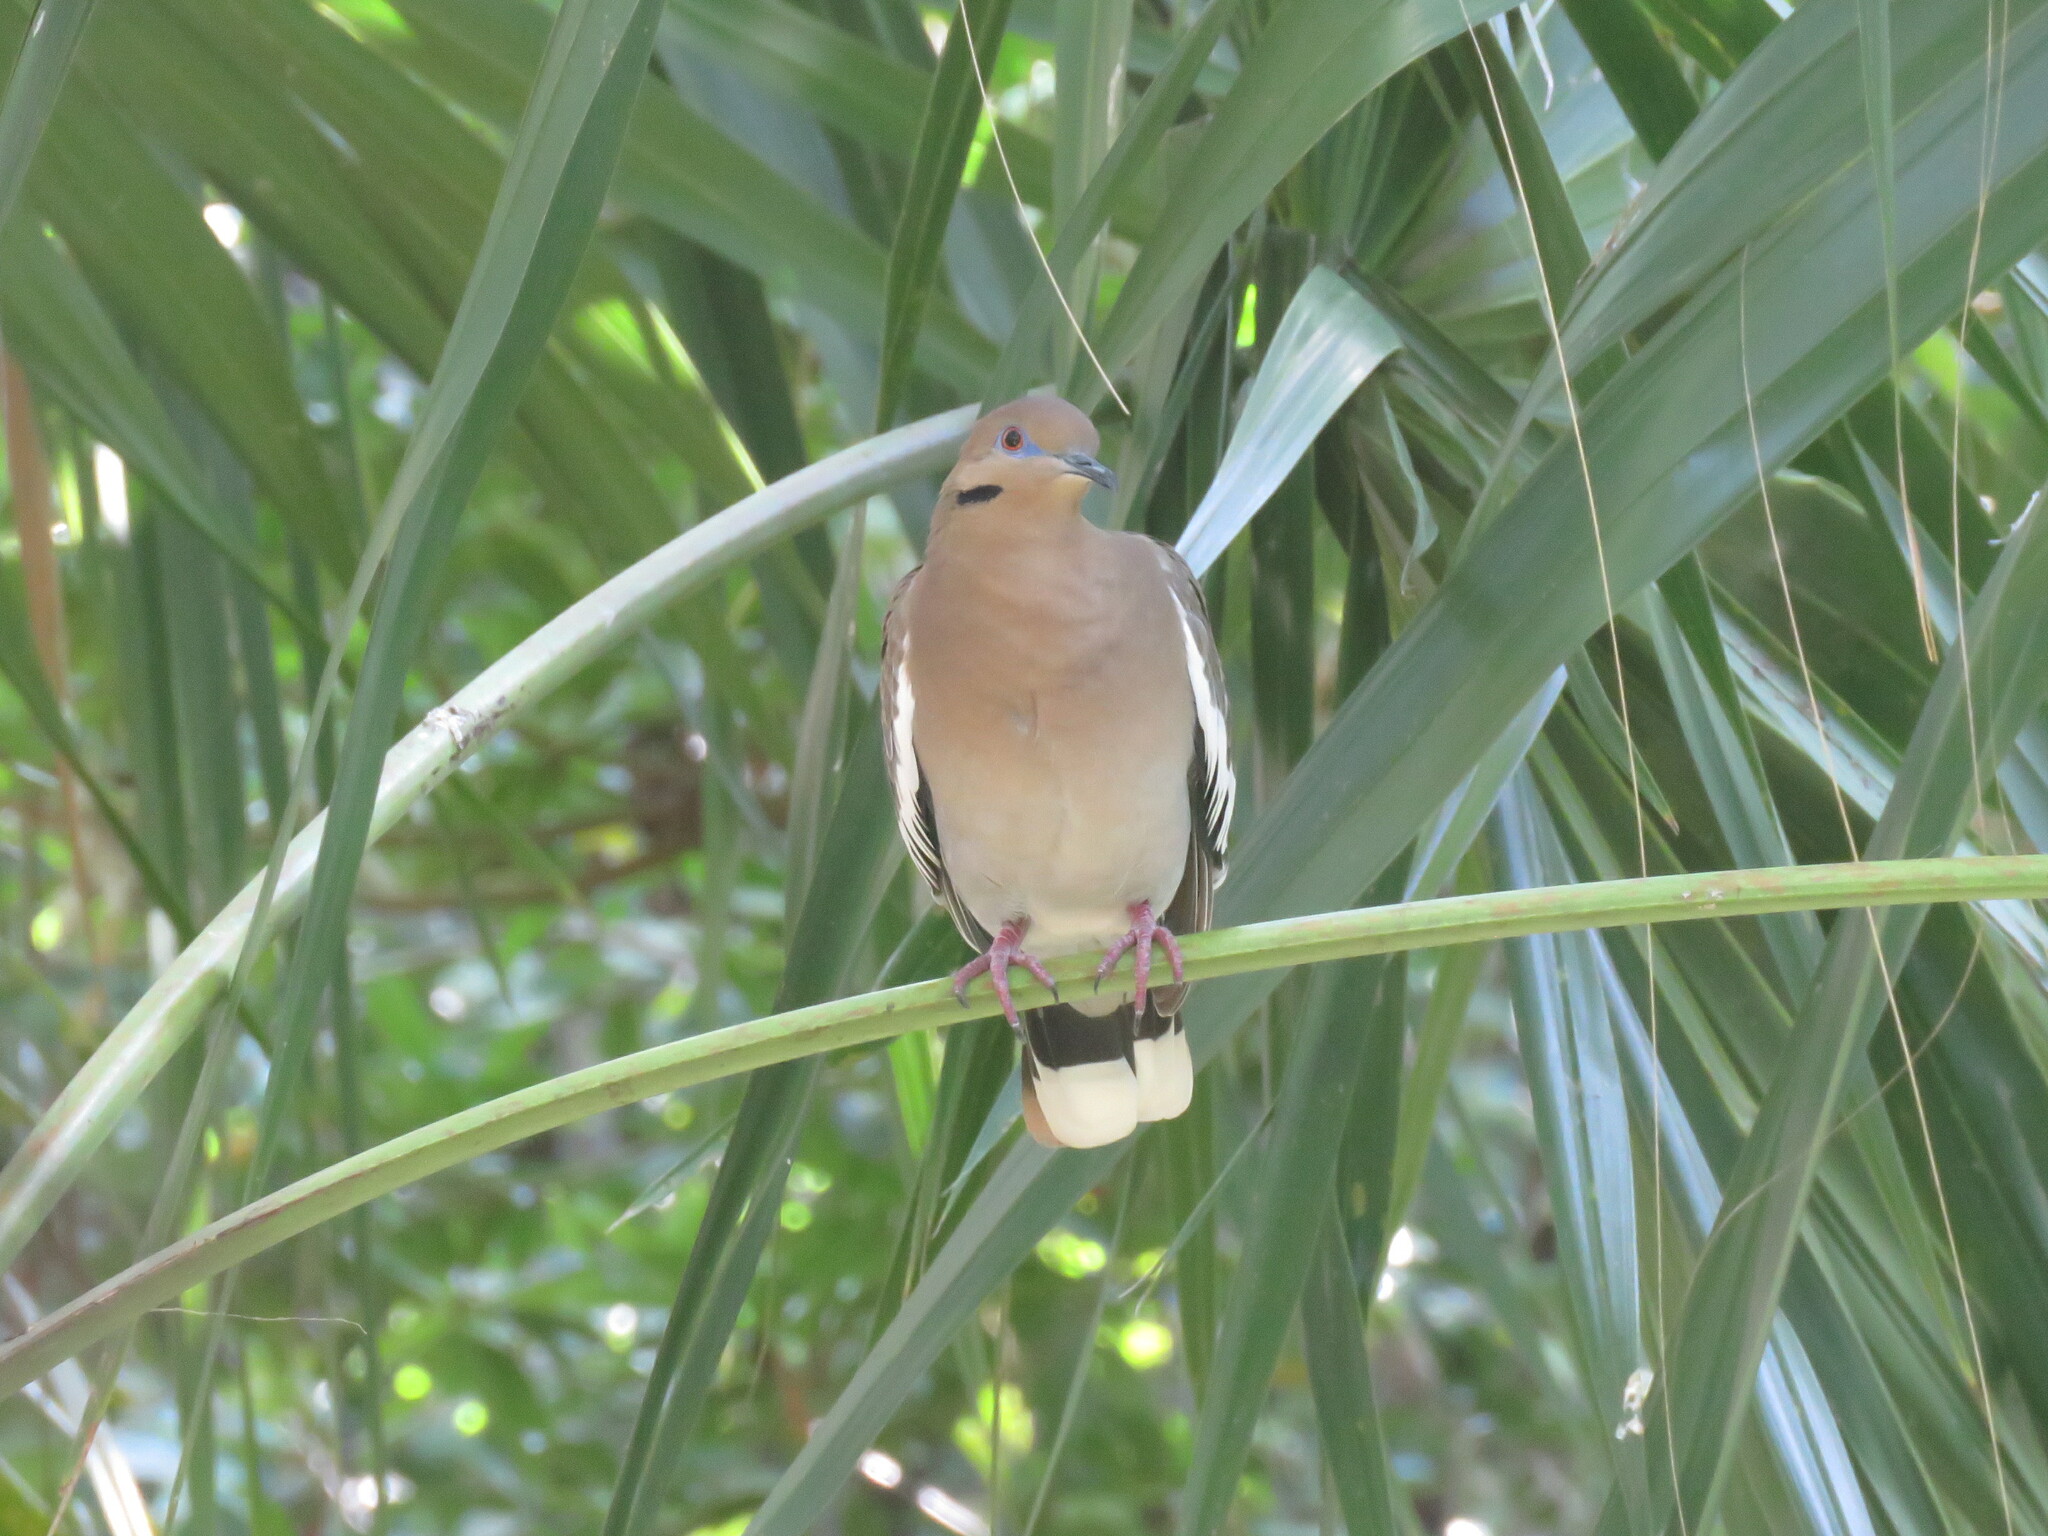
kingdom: Animalia
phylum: Chordata
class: Aves
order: Columbiformes
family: Columbidae
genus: Zenaida
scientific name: Zenaida asiatica
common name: White-winged dove
